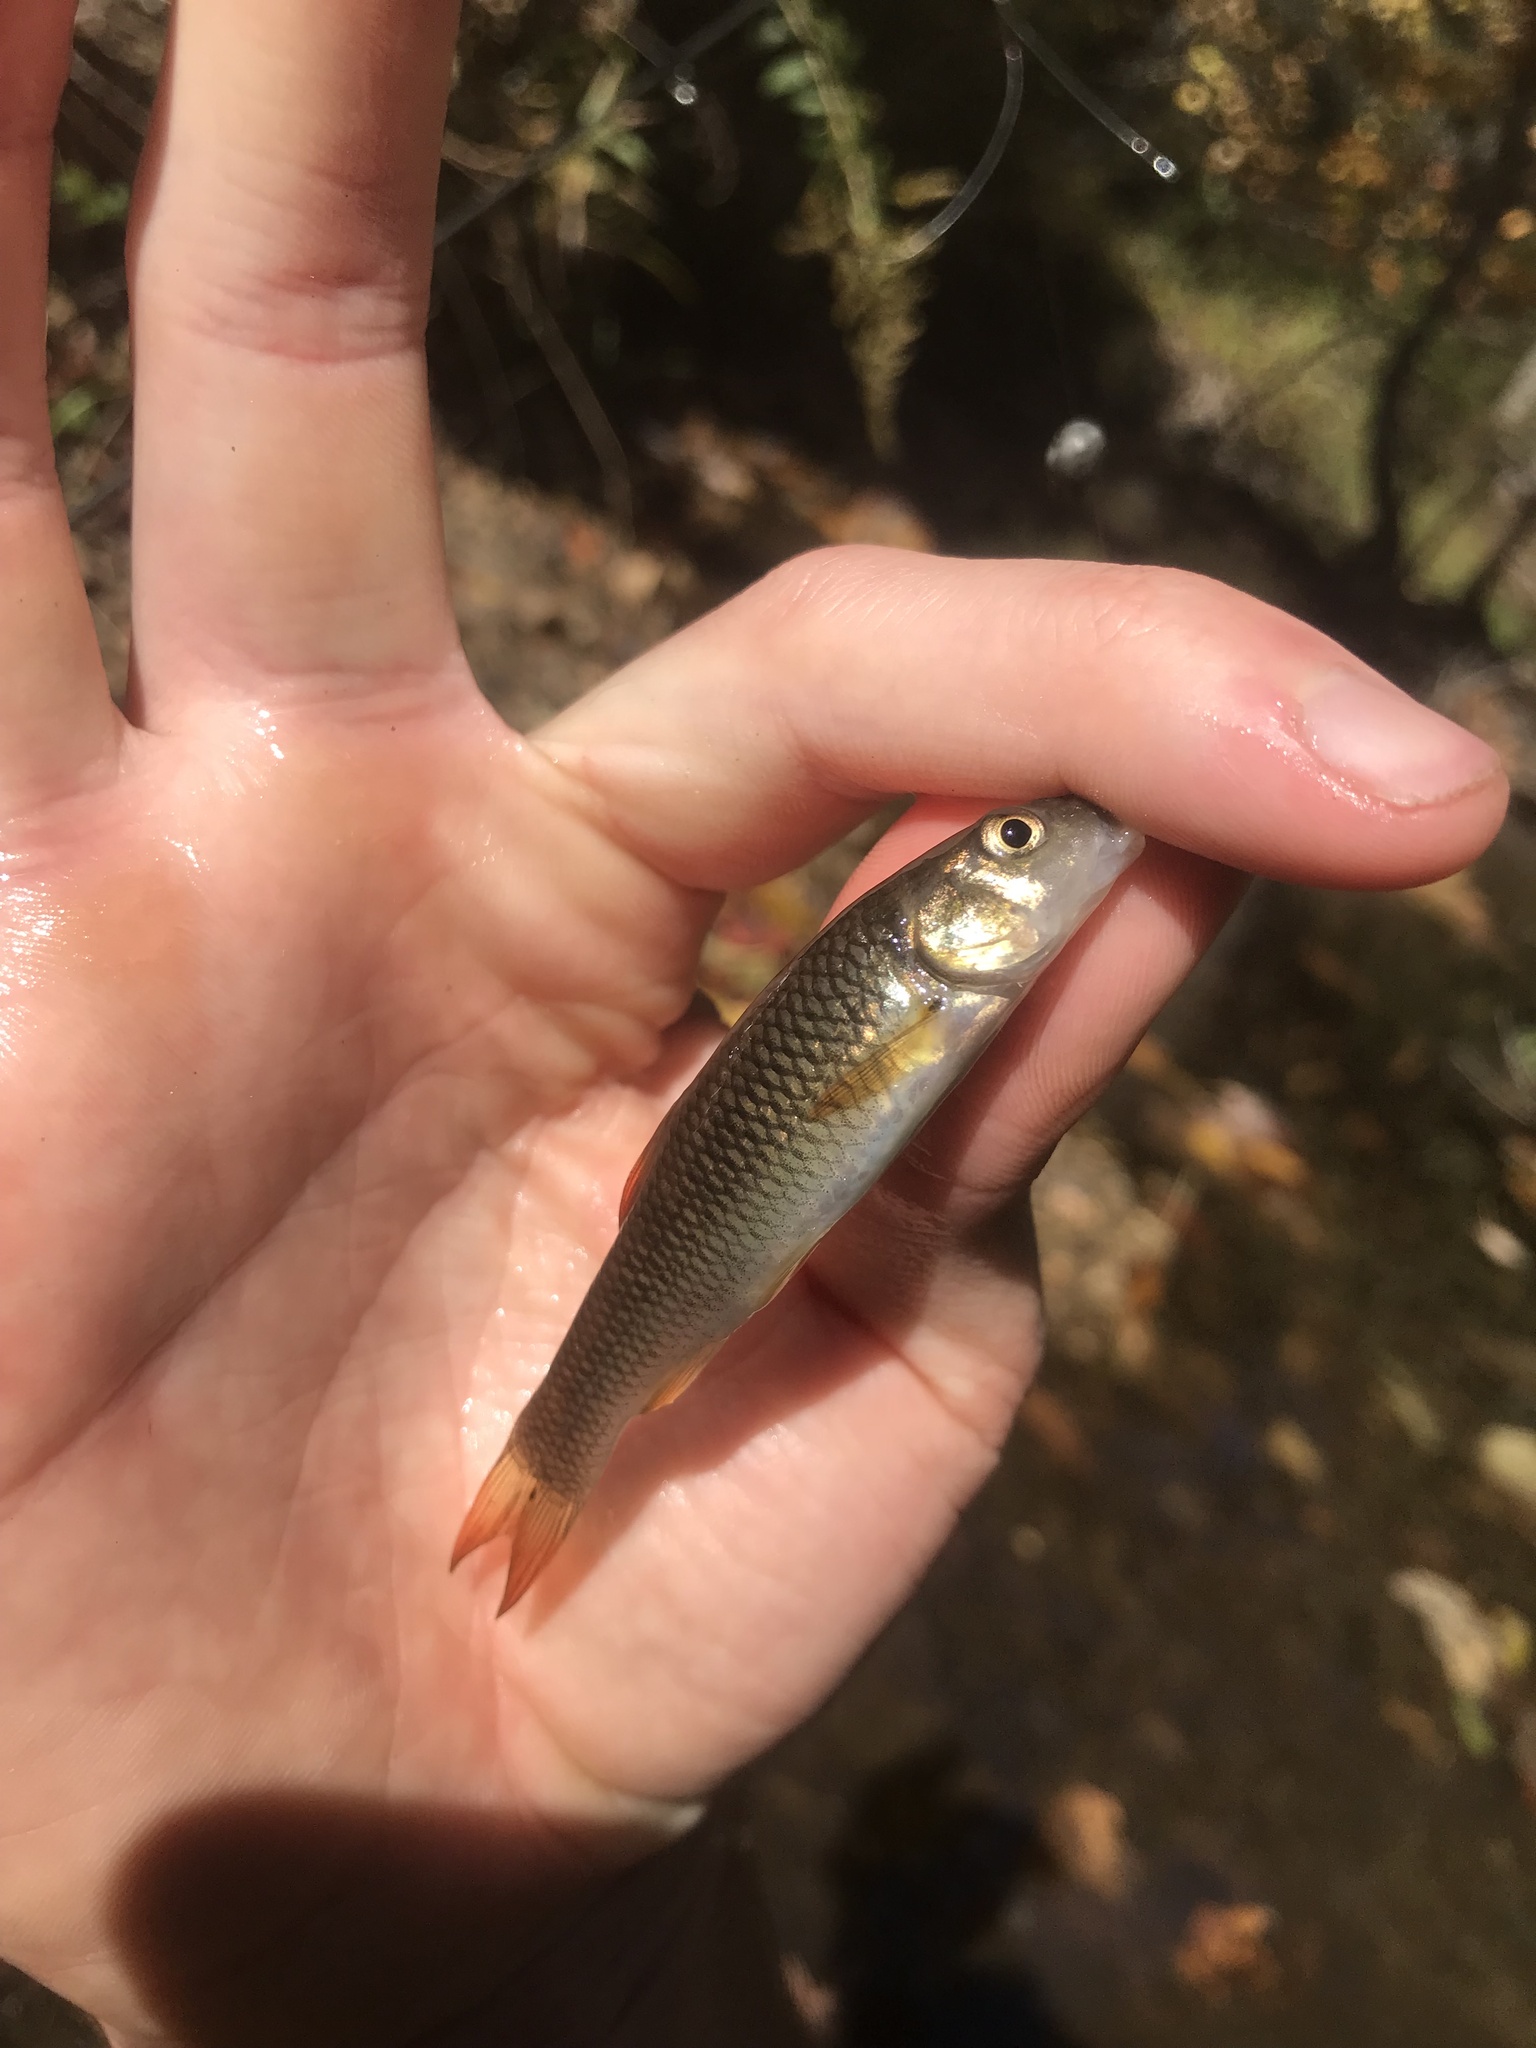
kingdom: Animalia
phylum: Chordata
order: Cypriniformes
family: Cyprinidae
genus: Nocomis
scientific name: Nocomis micropogon
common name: River chub
